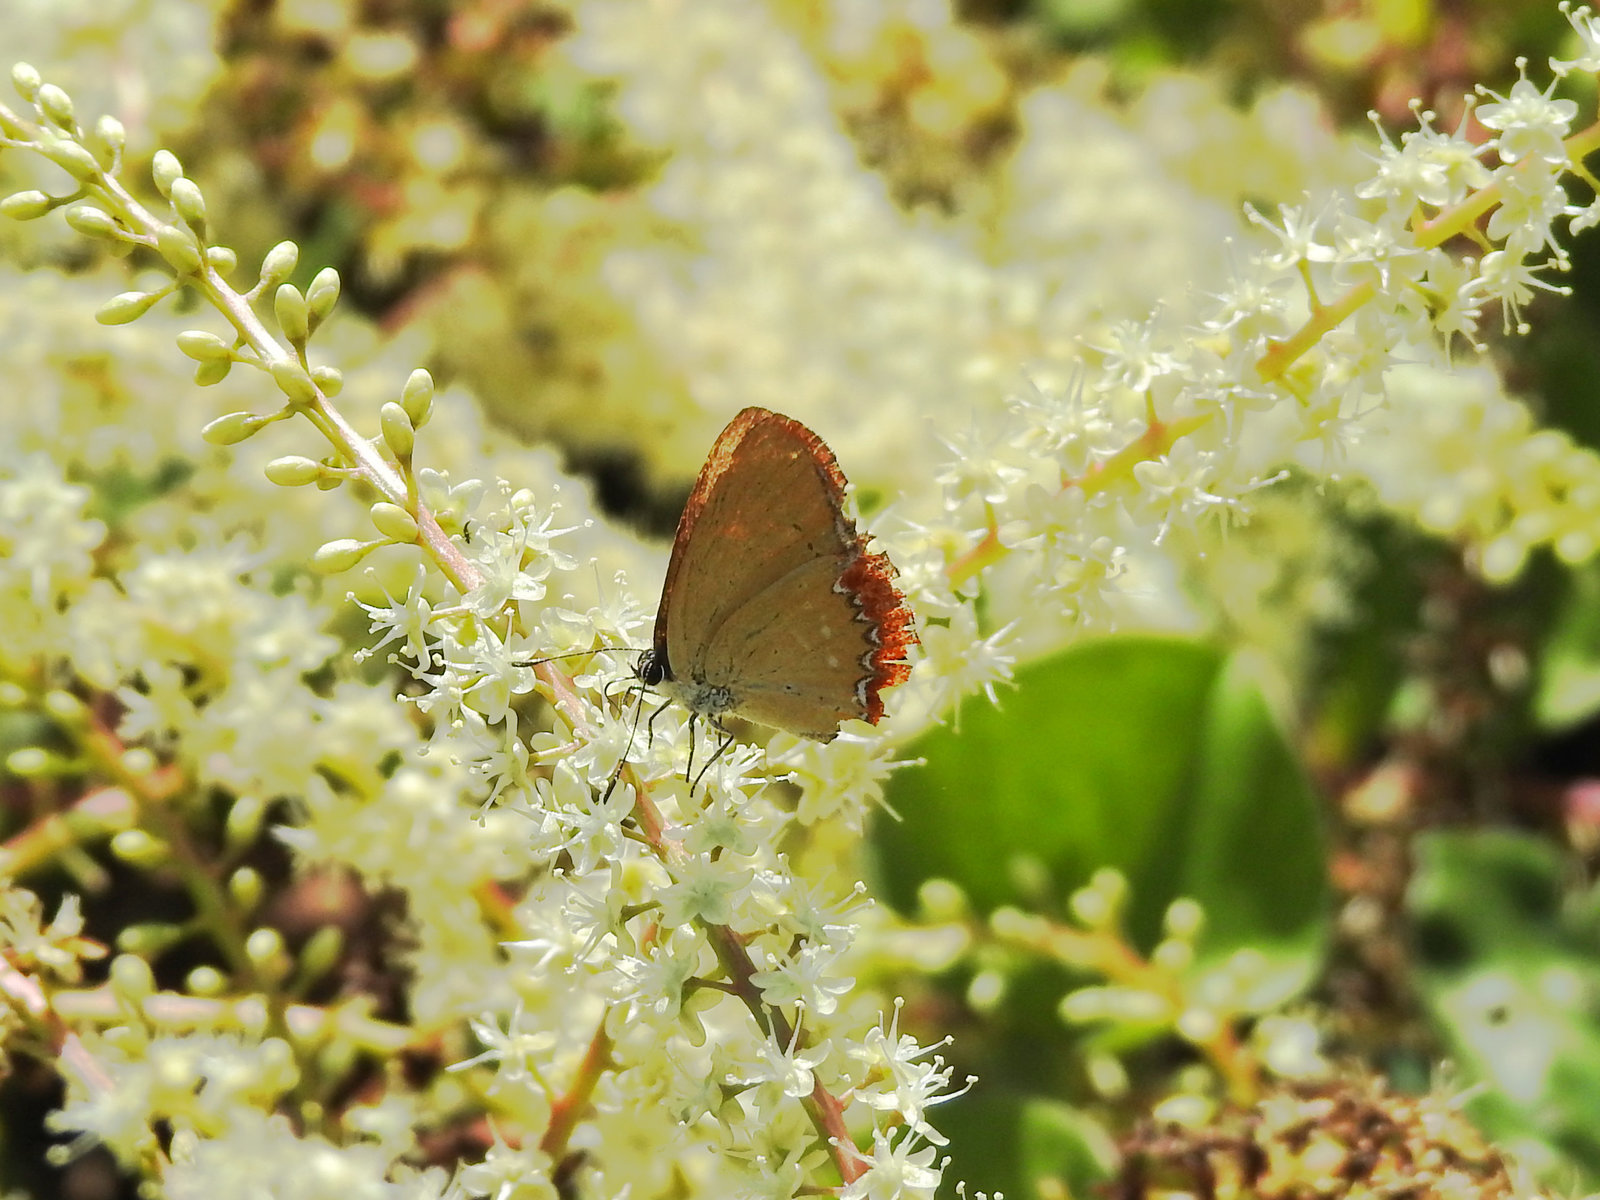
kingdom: Animalia
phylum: Arthropoda
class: Insecta
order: Lepidoptera
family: Lycaenidae
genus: Heliophorus
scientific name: Heliophorus epicles
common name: Purple sapphire
